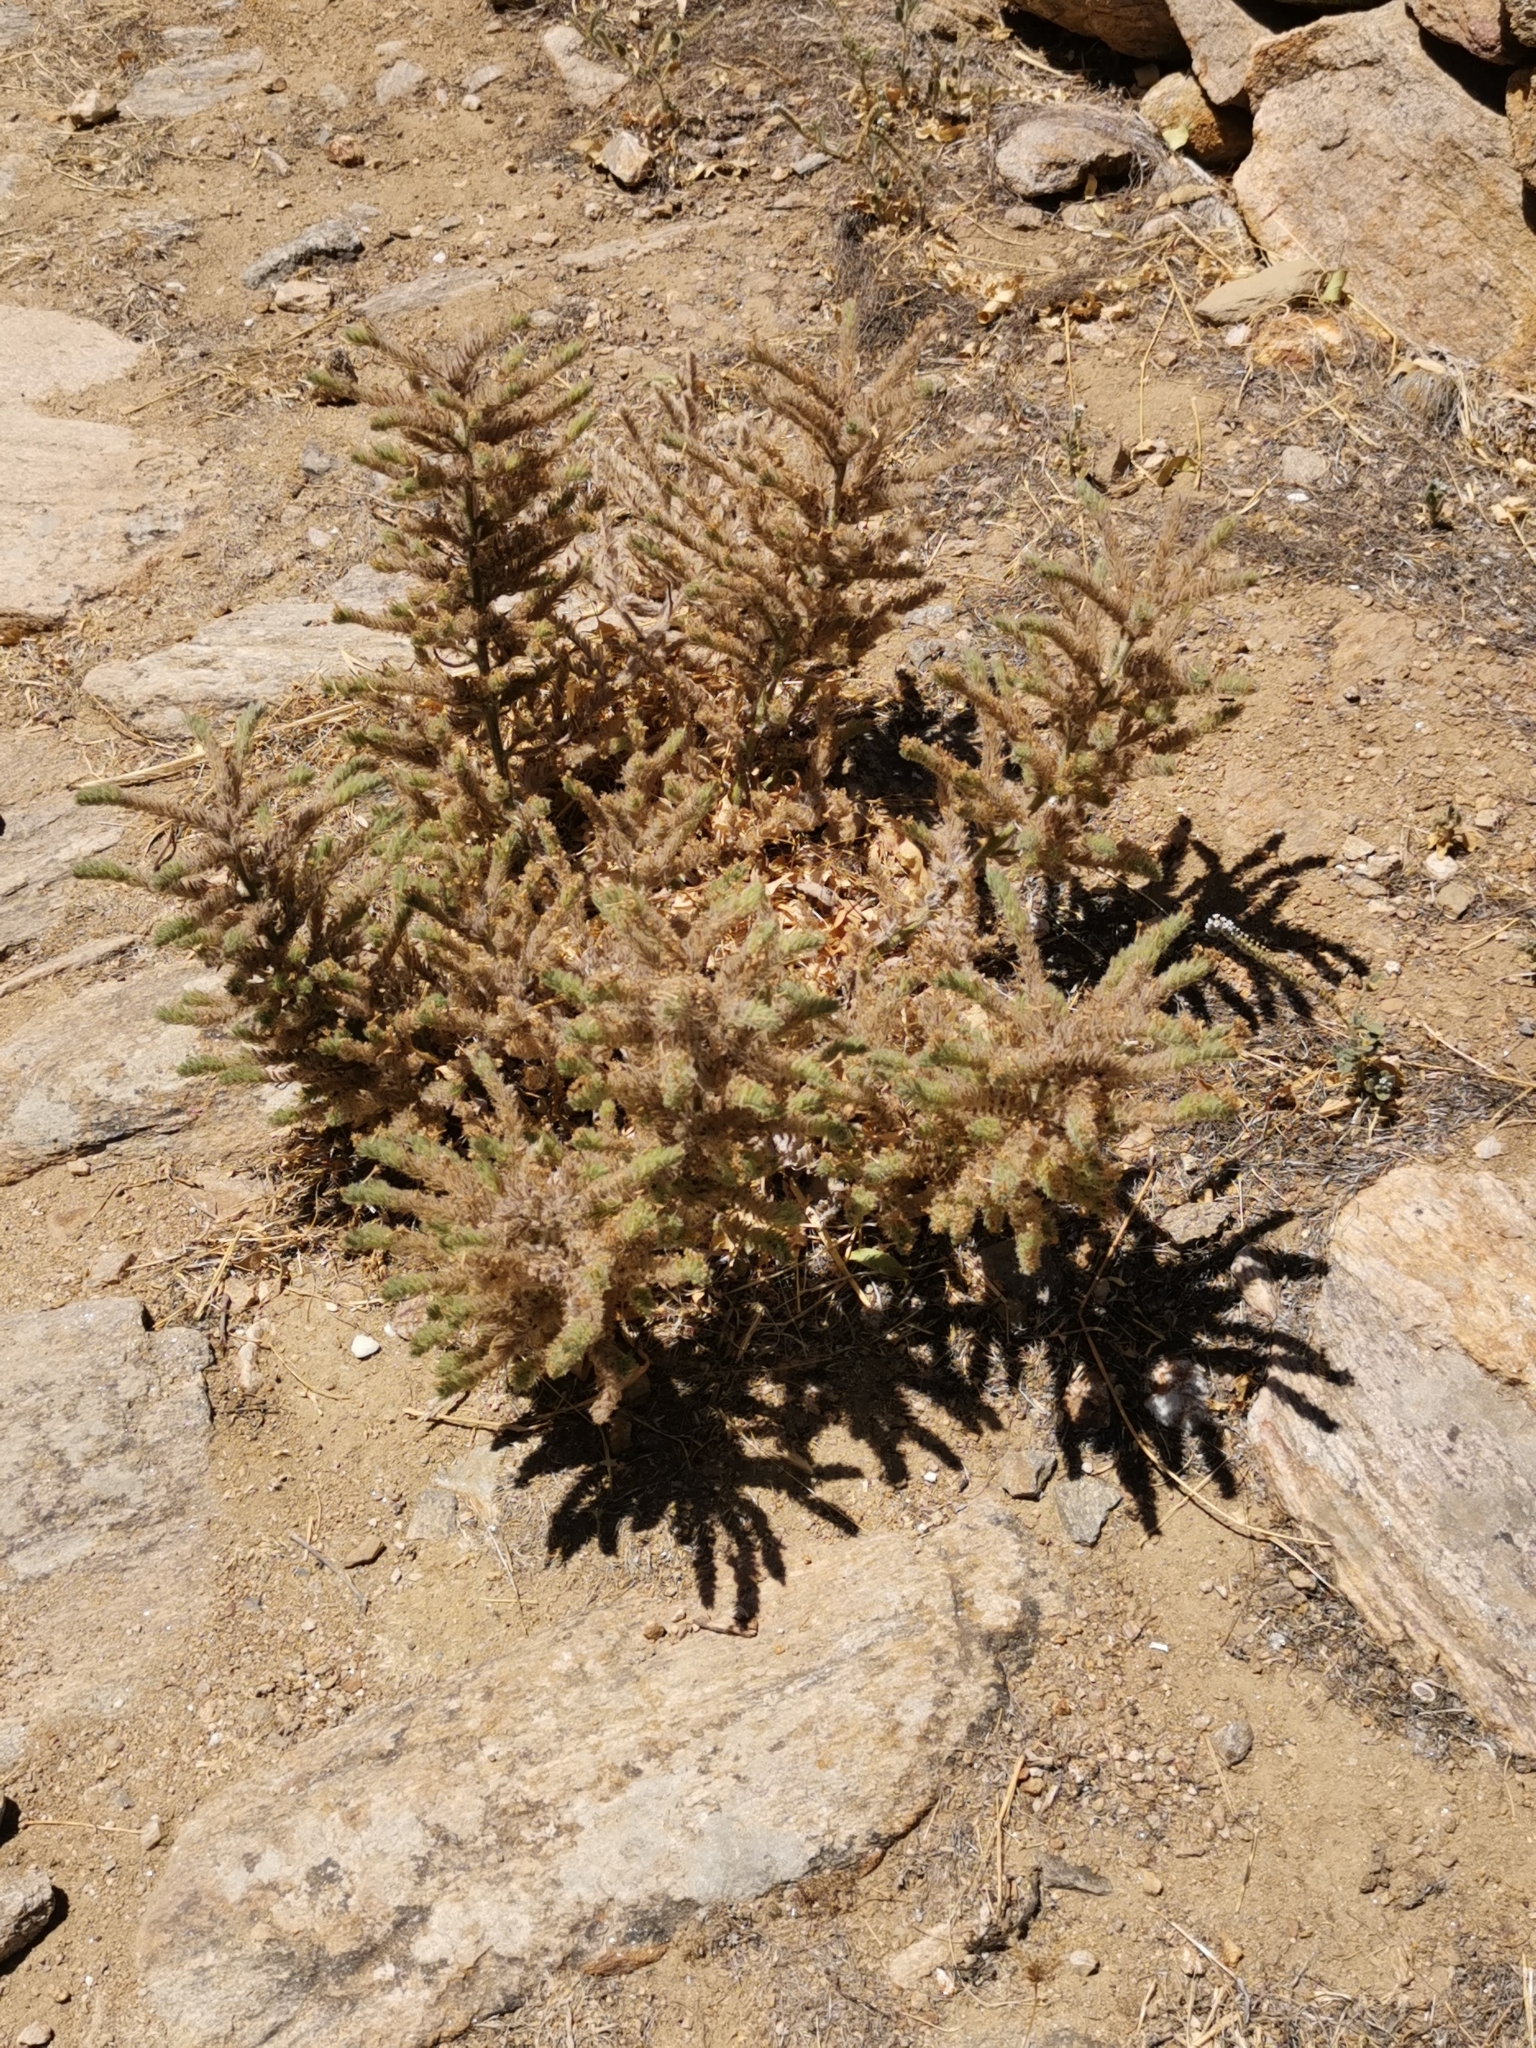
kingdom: Plantae
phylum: Tracheophyta
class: Magnoliopsida
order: Boraginales
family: Boraginaceae
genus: Echium
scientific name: Echium italicum
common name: Italian viper's bugloss
